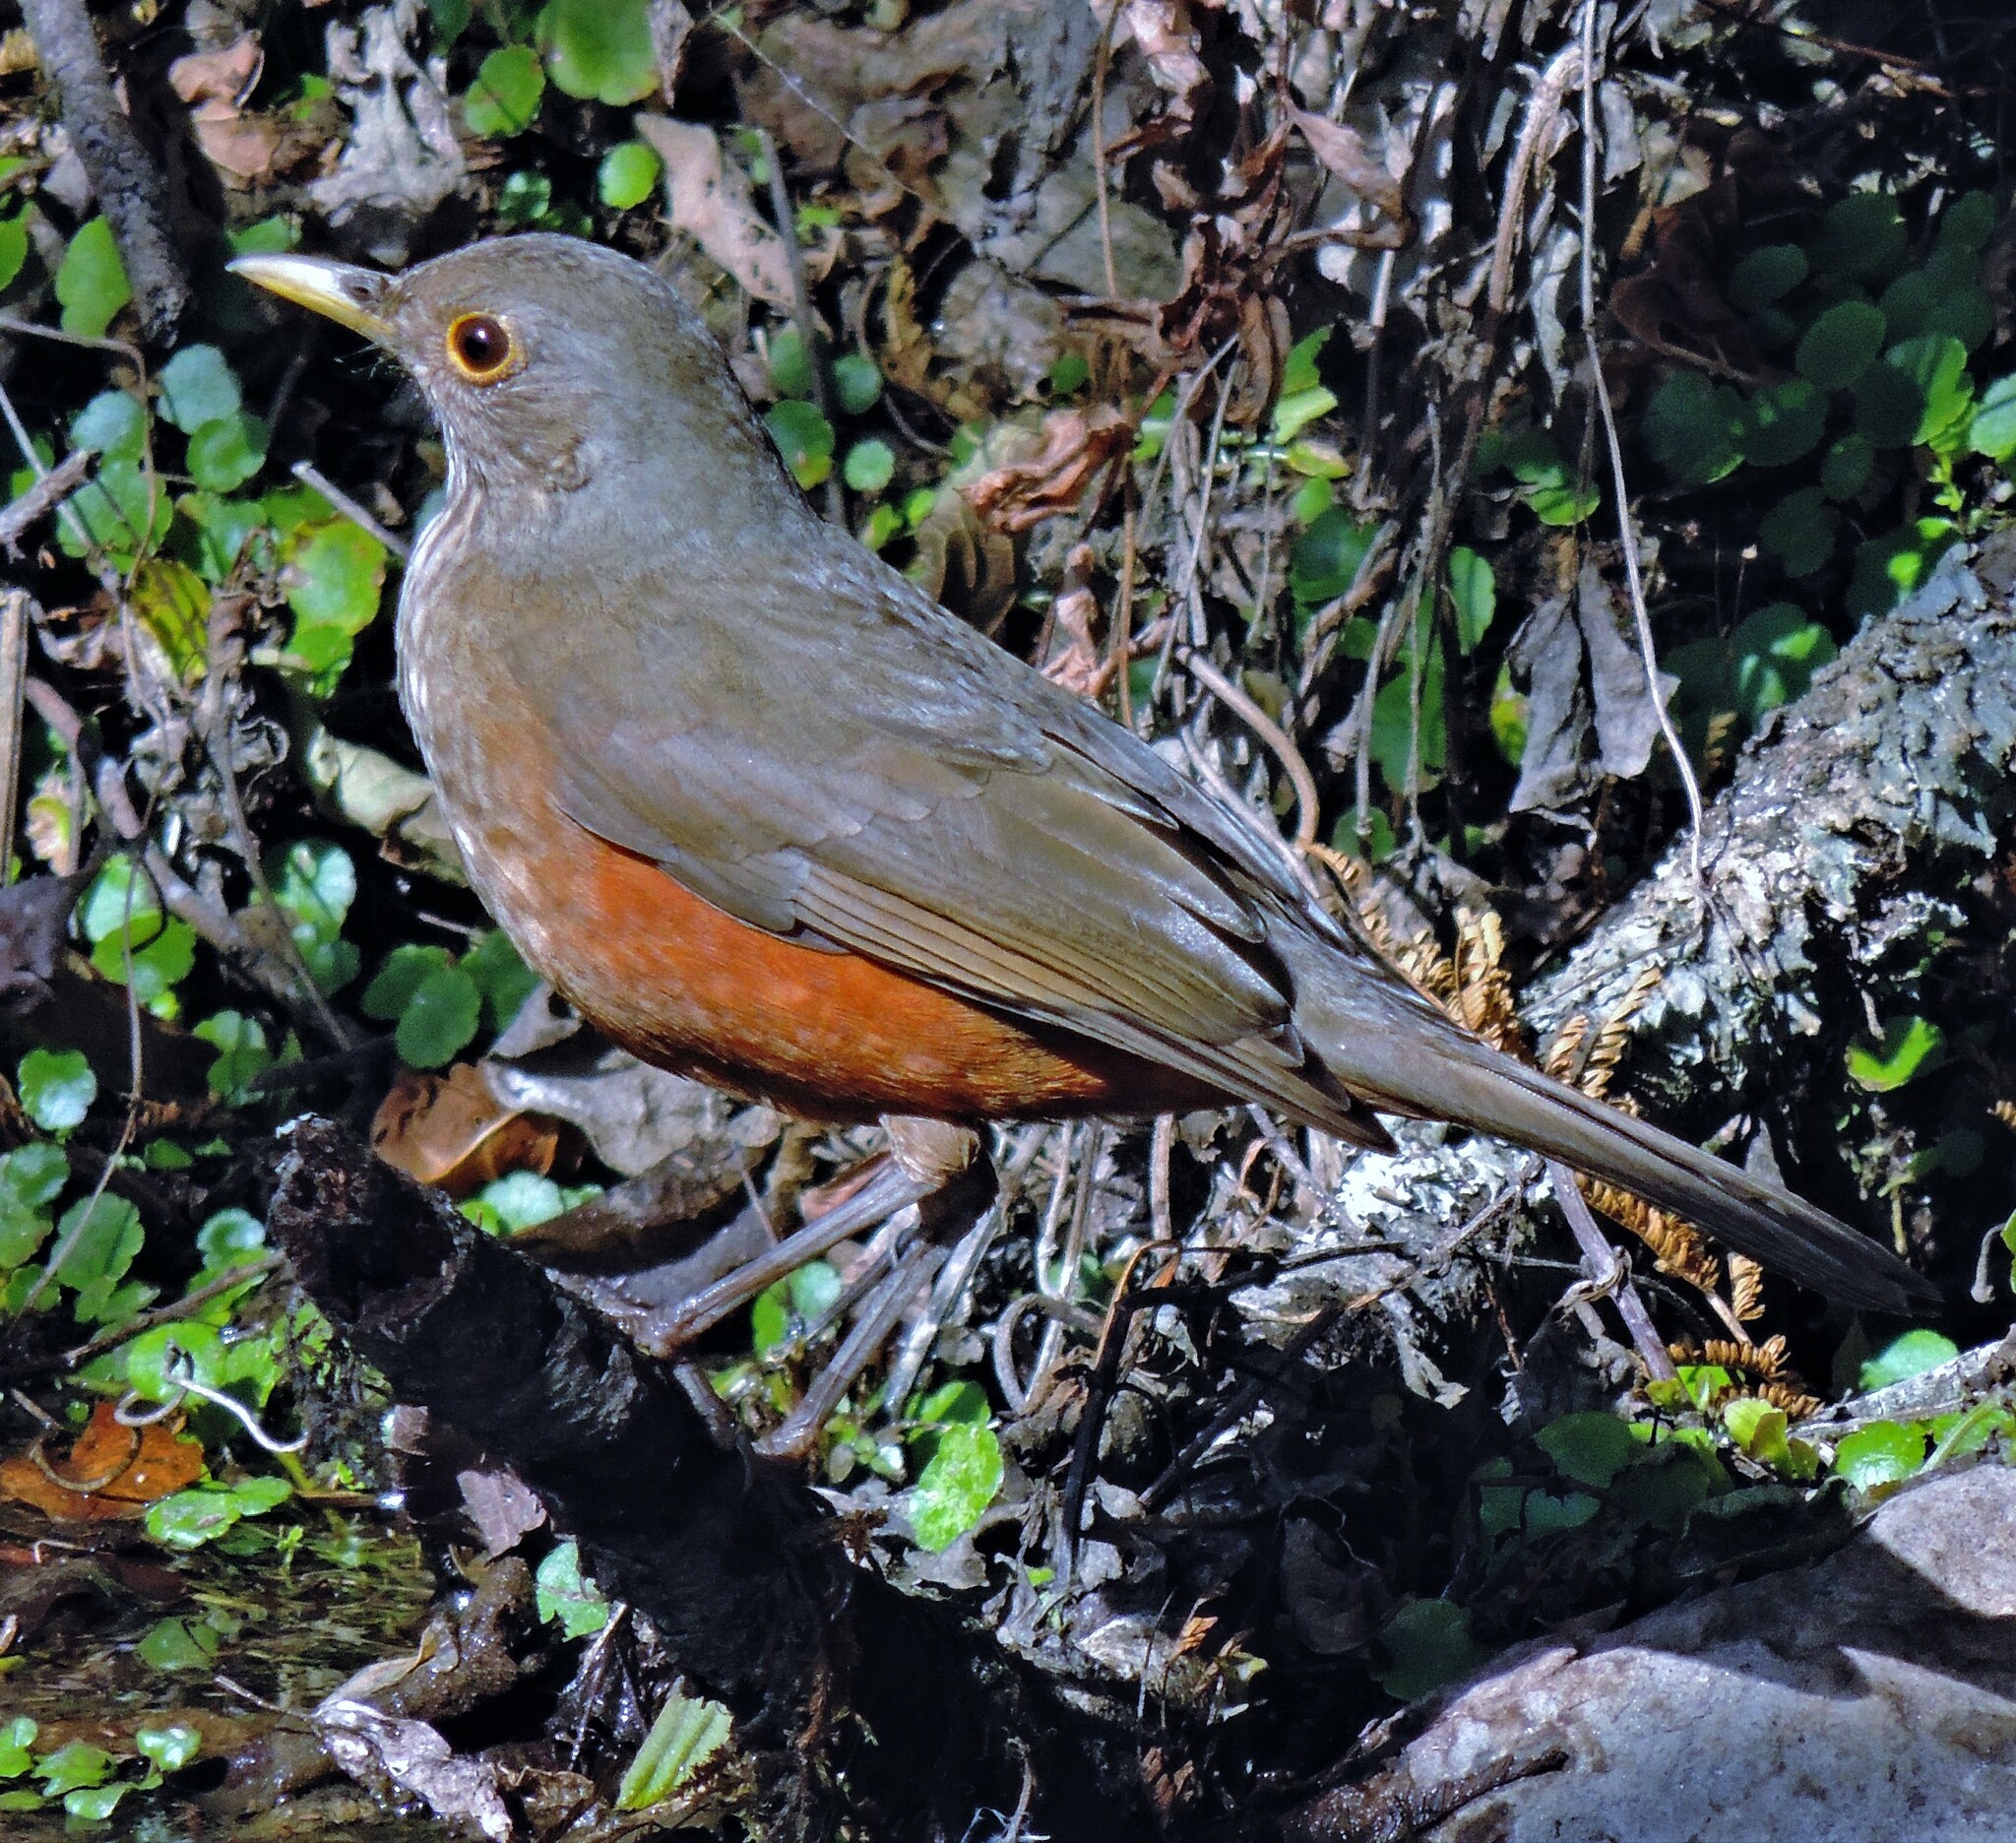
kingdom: Animalia
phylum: Chordata
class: Aves
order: Passeriformes
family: Turdidae
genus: Turdus
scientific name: Turdus rufiventris
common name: Rufous-bellied thrush
